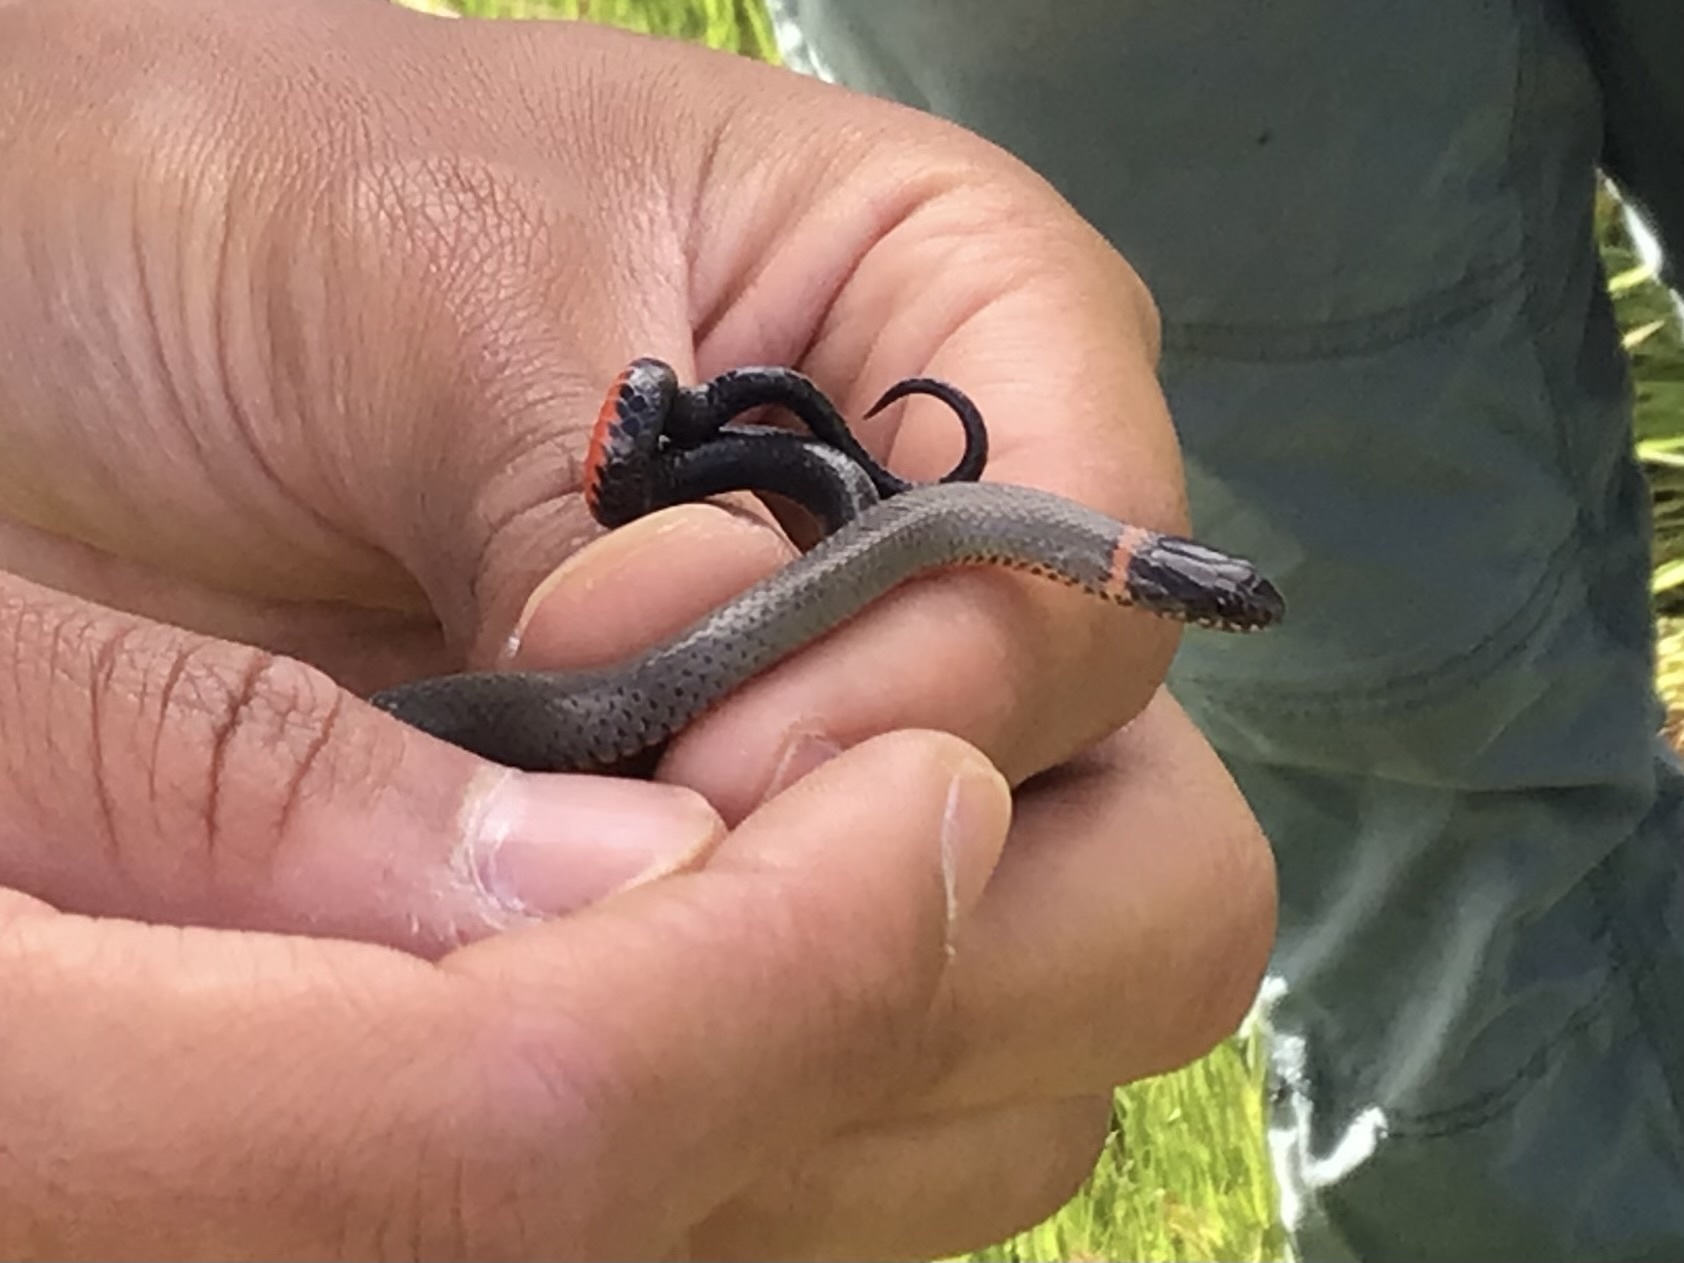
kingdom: Animalia
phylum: Chordata
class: Squamata
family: Colubridae
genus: Diadophis
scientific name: Diadophis punctatus
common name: Ringneck snake
